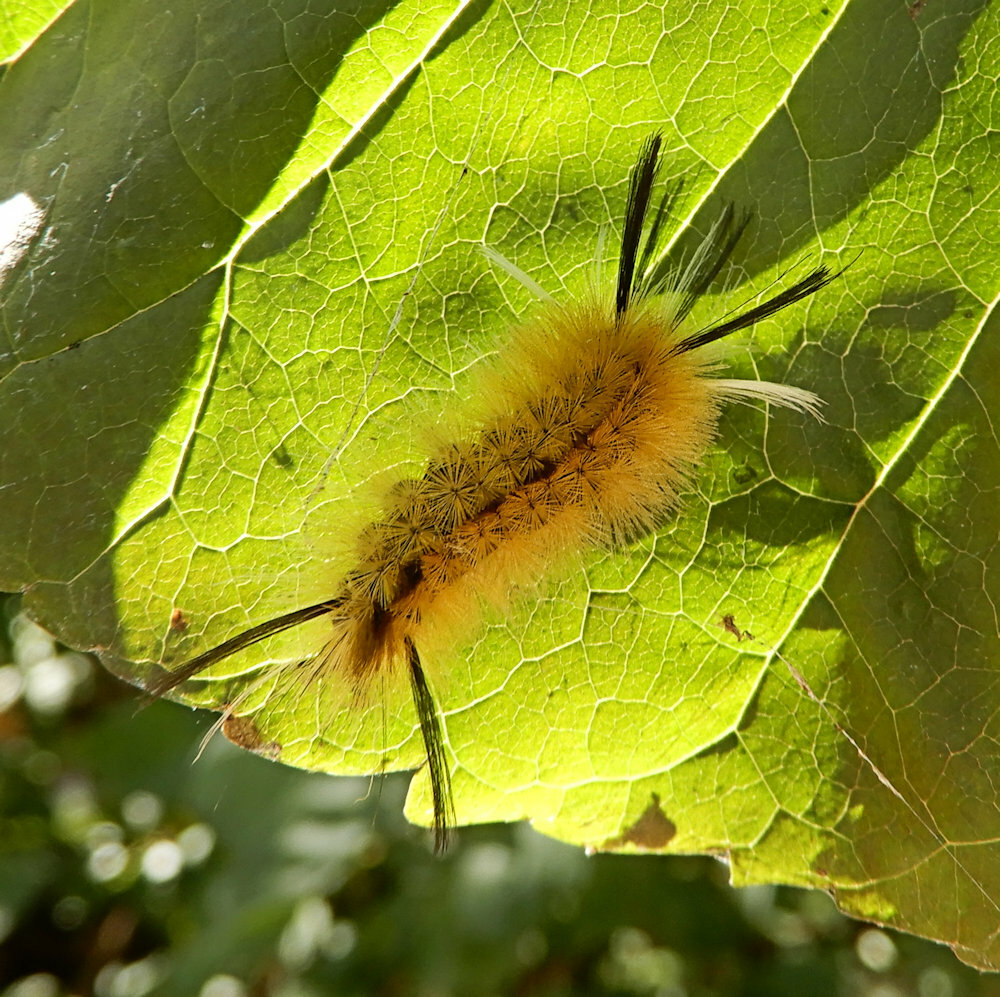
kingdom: Animalia
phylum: Arthropoda
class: Insecta
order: Lepidoptera
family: Erebidae
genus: Halysidota
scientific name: Halysidota tessellaris
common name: Banded tussock moth
